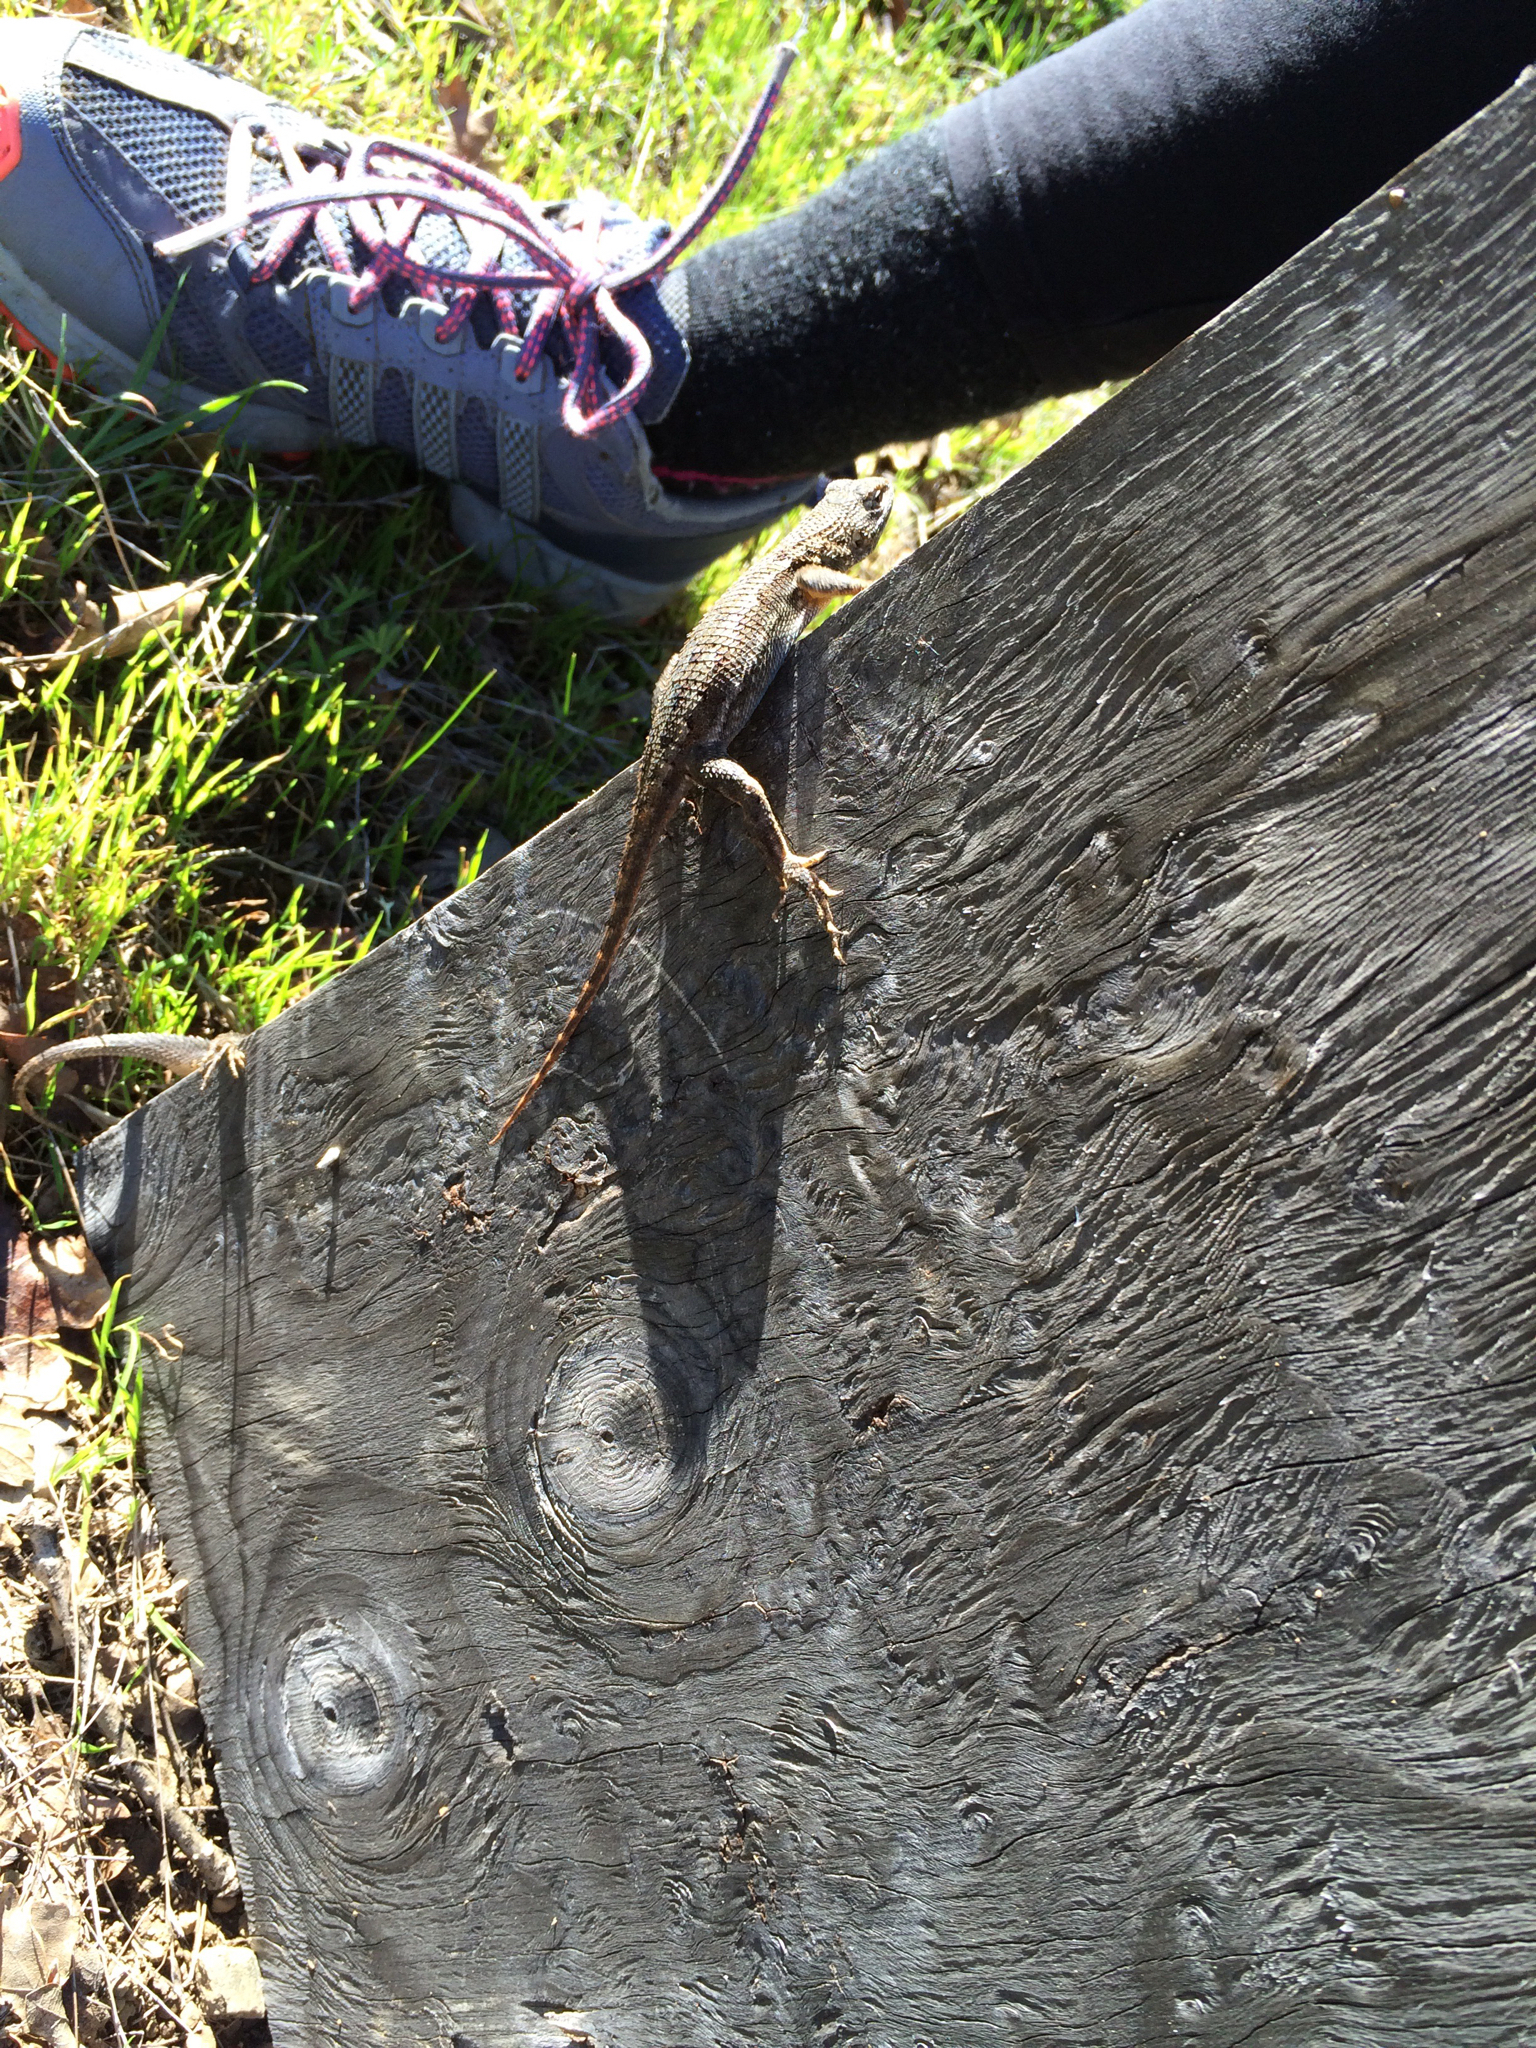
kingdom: Animalia
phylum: Chordata
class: Squamata
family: Phrynosomatidae
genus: Sceloporus
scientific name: Sceloporus occidentalis
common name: Western fence lizard
